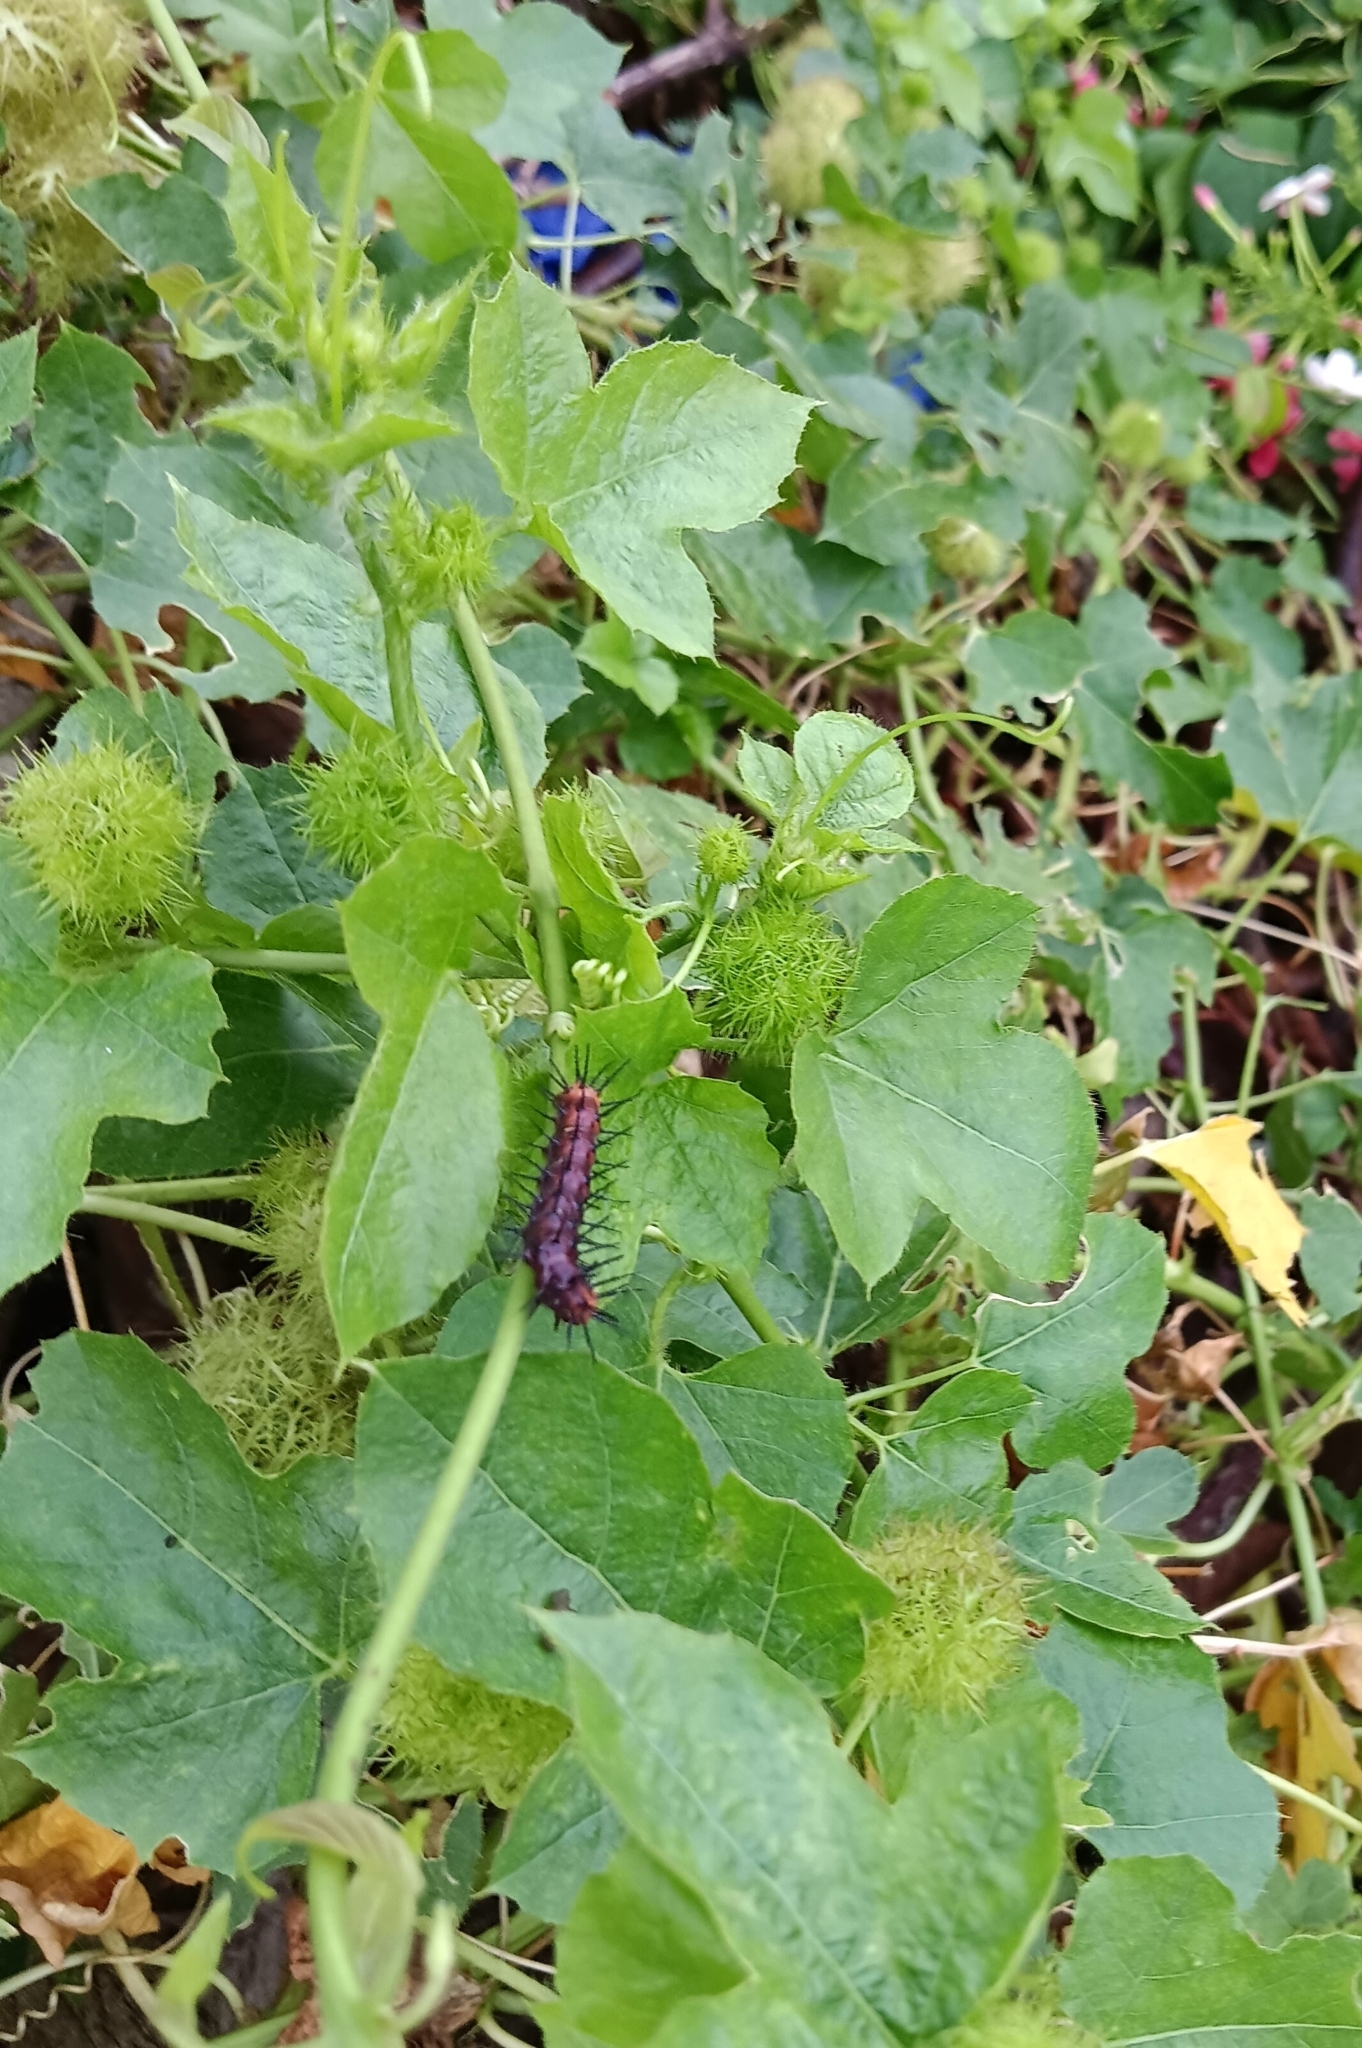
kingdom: Animalia
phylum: Arthropoda
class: Insecta
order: Lepidoptera
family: Nymphalidae
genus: Acraea
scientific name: Acraea terpsicore
